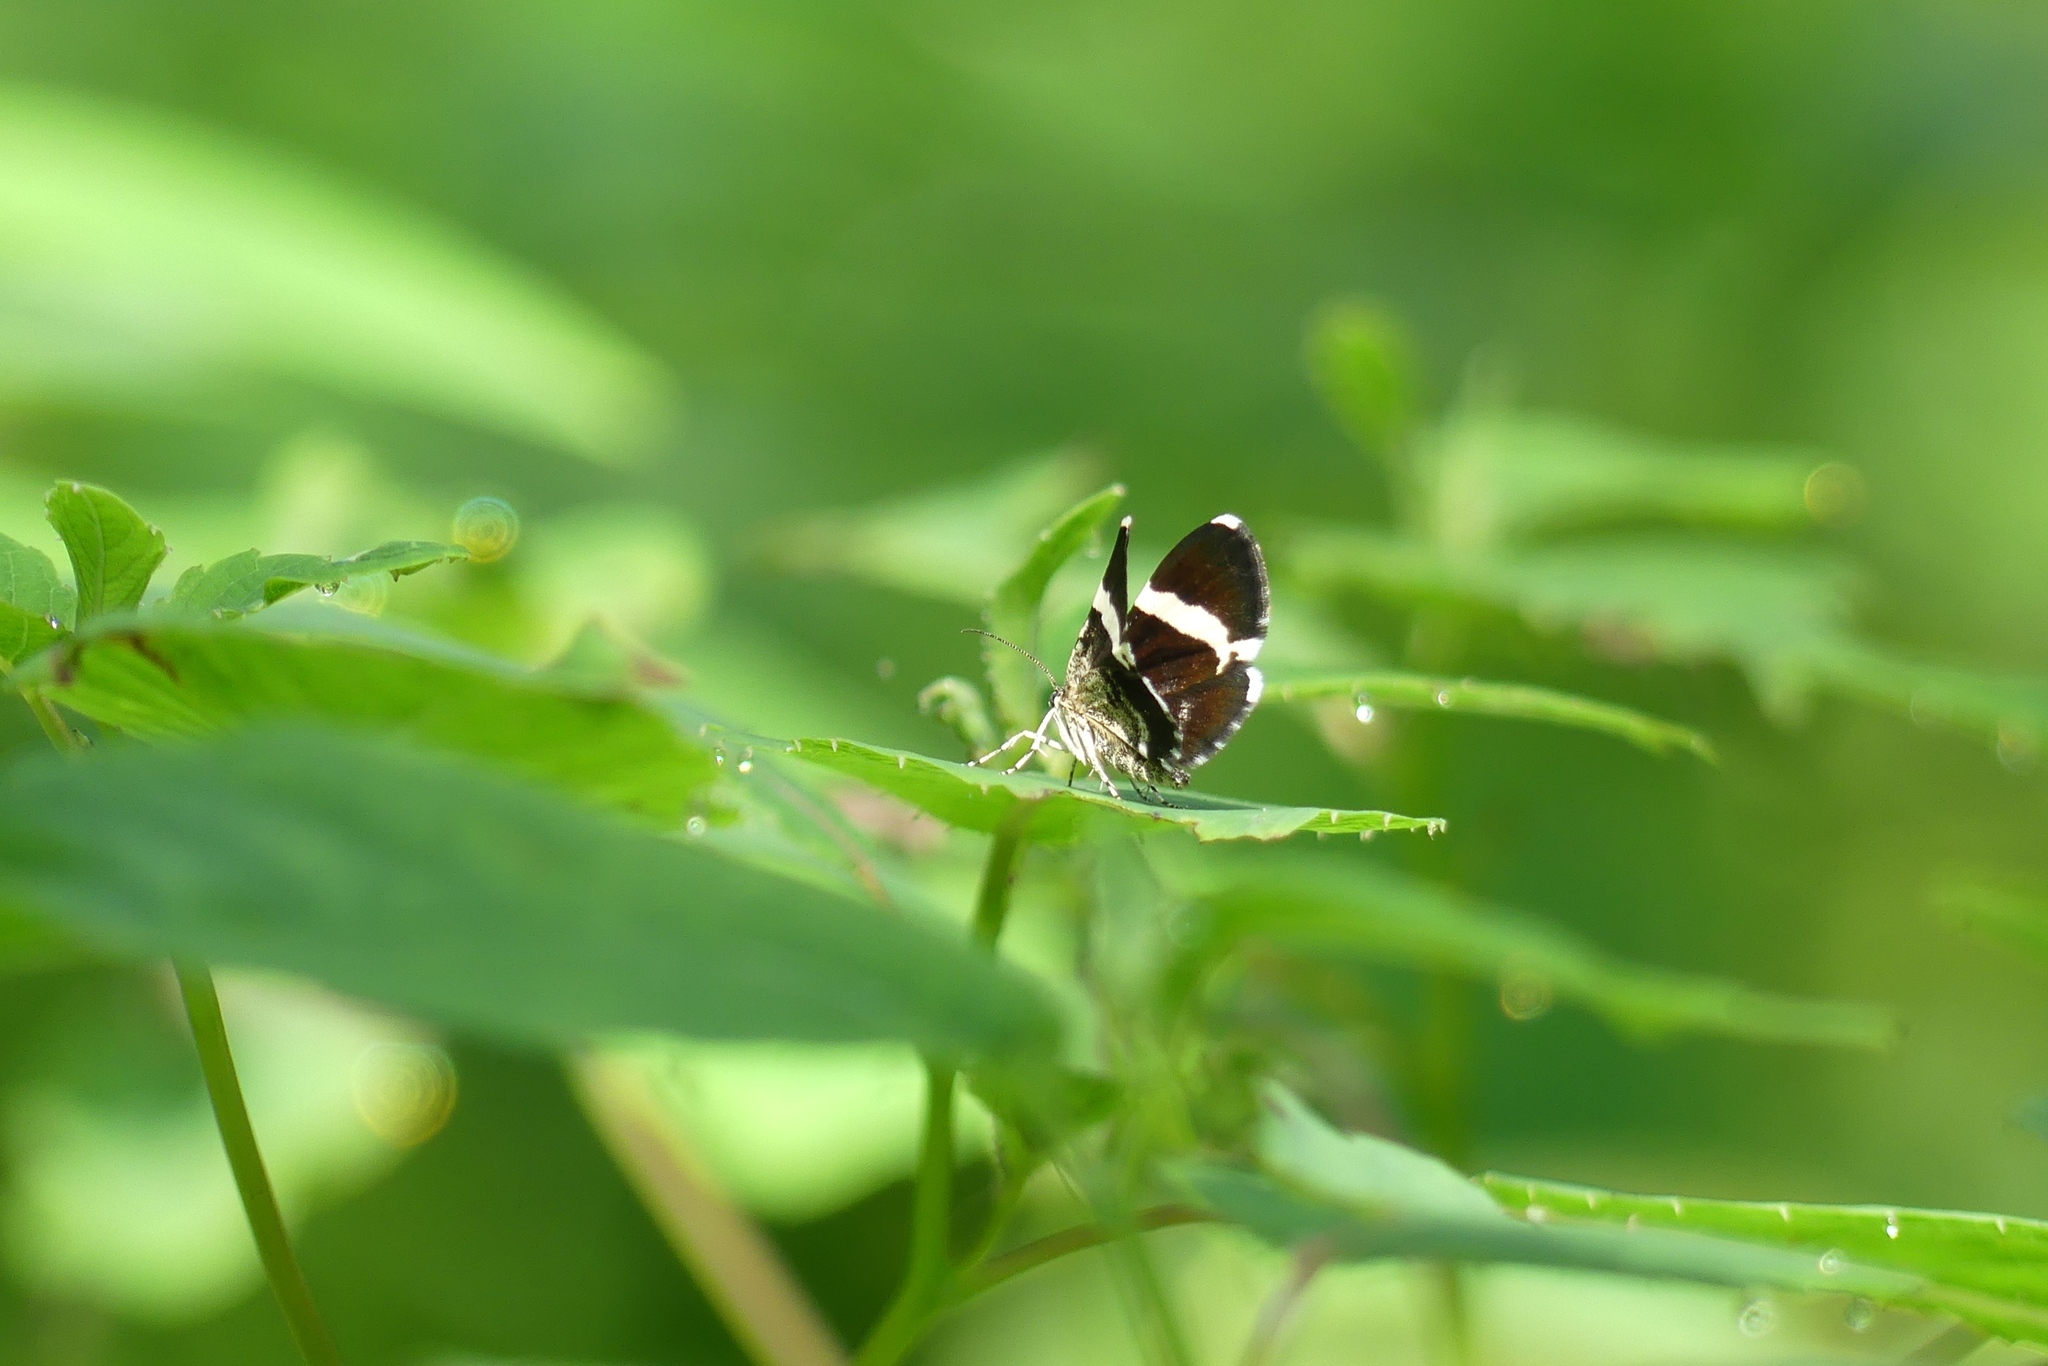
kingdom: Animalia
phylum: Arthropoda
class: Insecta
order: Lepidoptera
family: Geometridae
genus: Trichodezia
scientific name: Trichodezia albovittata
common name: White striped black
